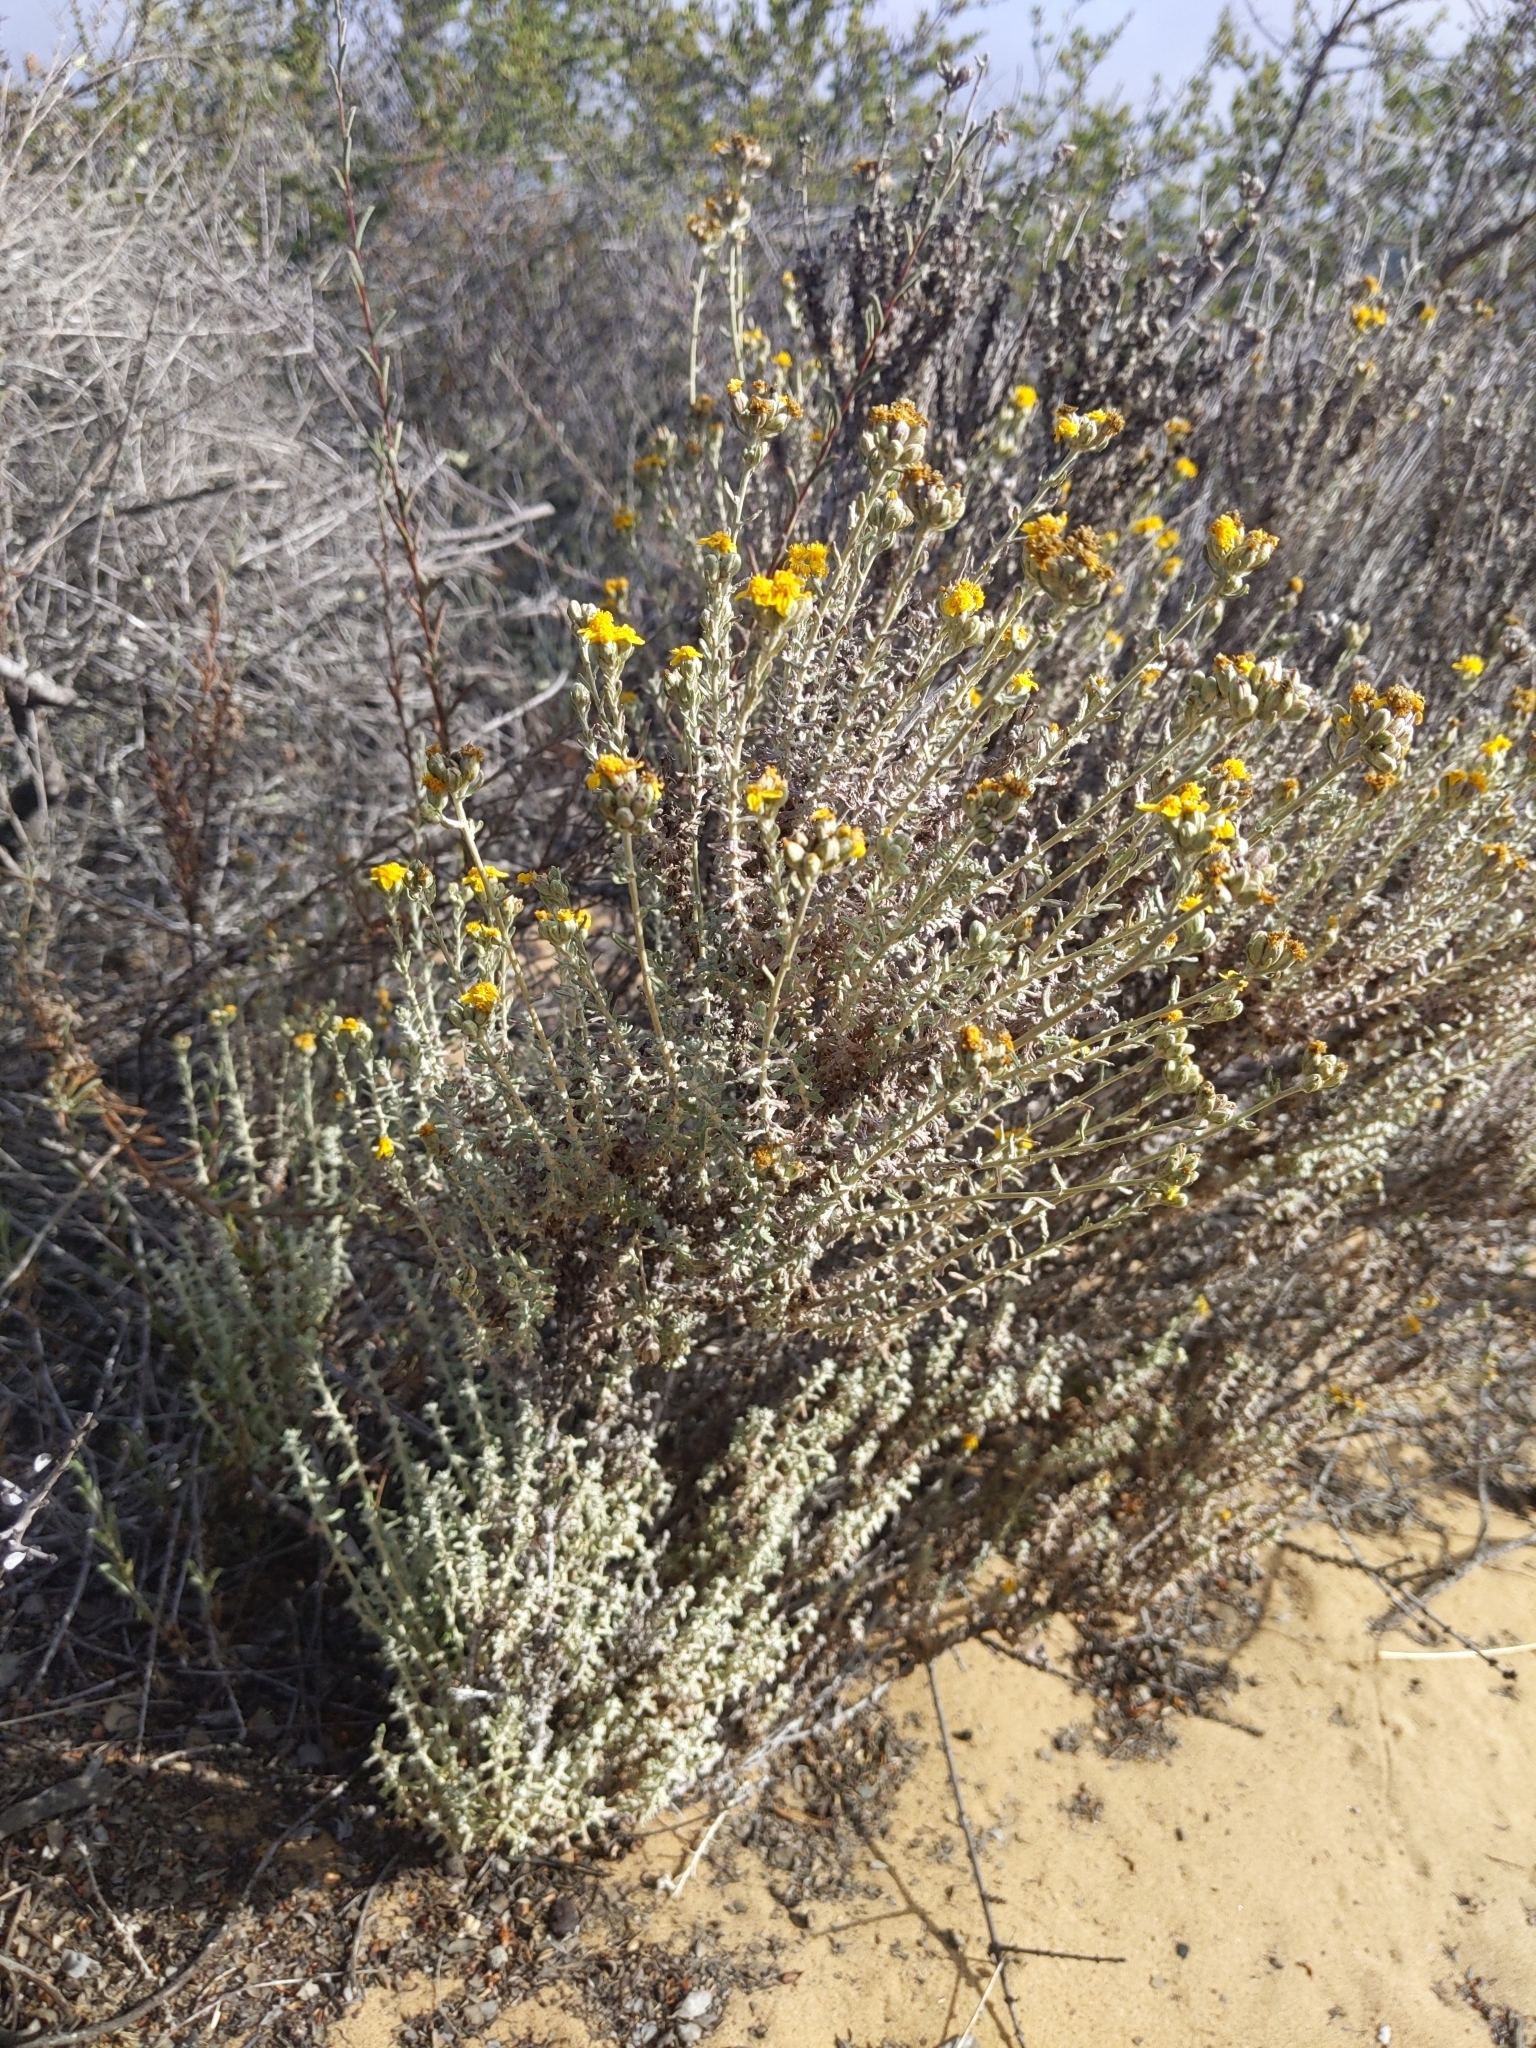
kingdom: Plantae
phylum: Tracheophyta
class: Magnoliopsida
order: Asterales
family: Asteraceae
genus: Isocoma
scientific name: Isocoma menziesii
